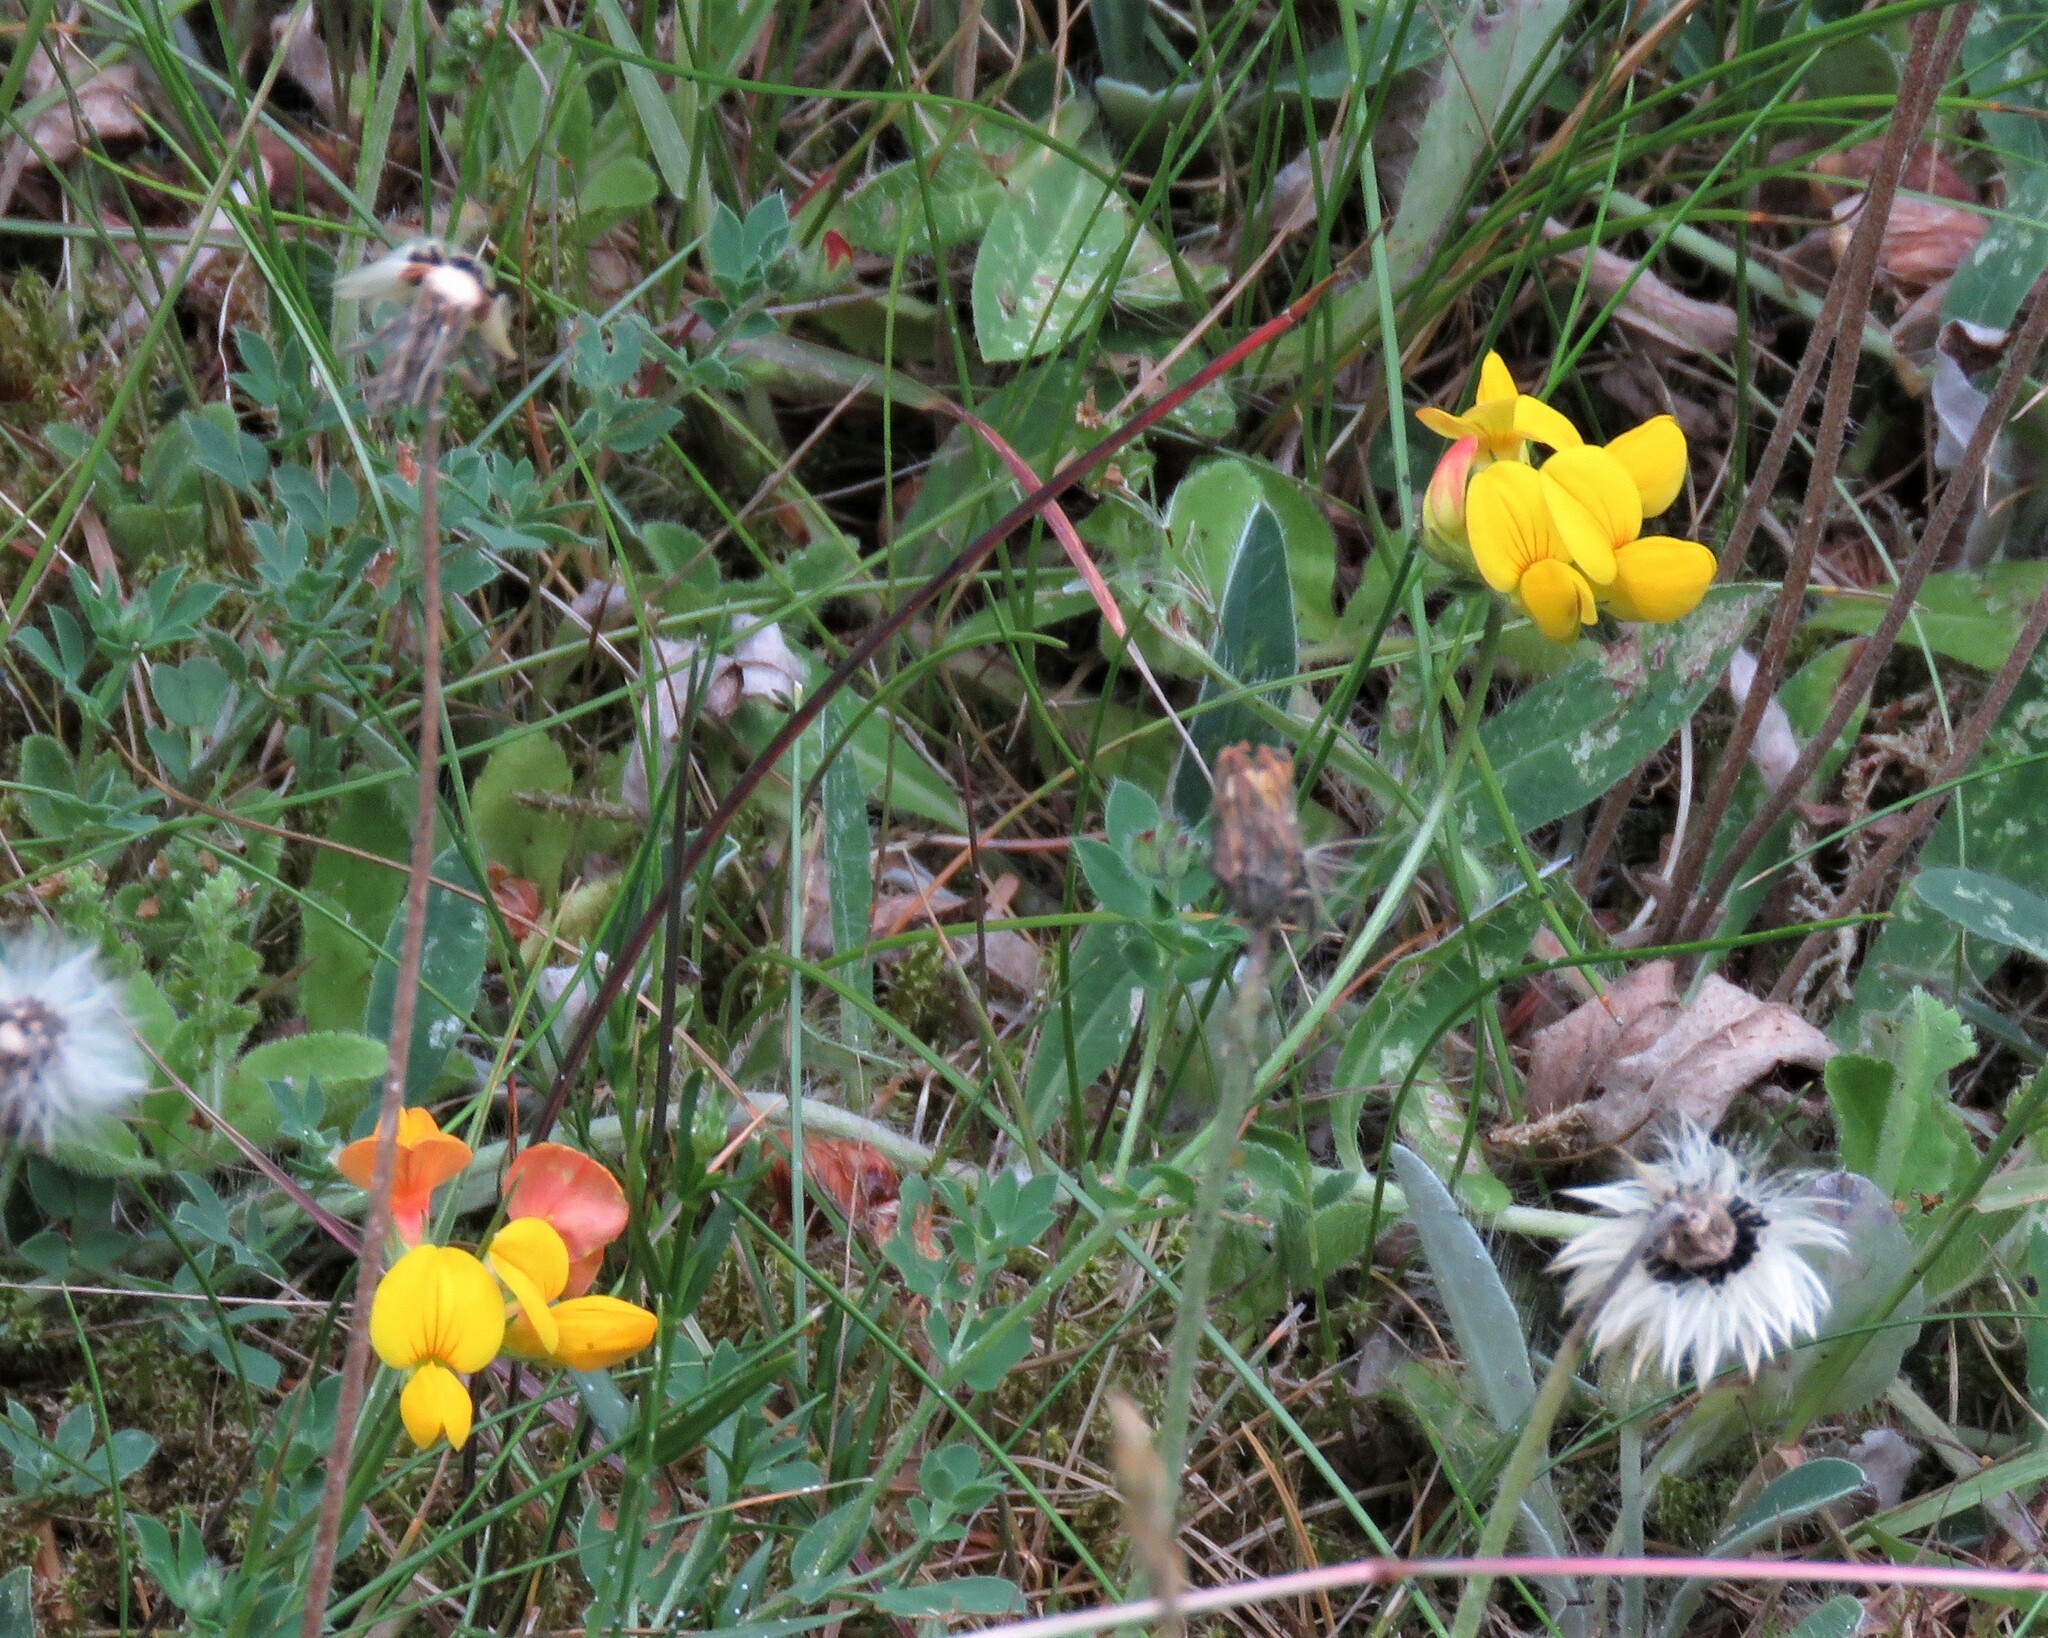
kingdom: Plantae
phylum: Tracheophyta
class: Magnoliopsida
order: Fabales
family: Fabaceae
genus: Lotus
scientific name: Lotus corniculatus
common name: Common bird's-foot-trefoil
